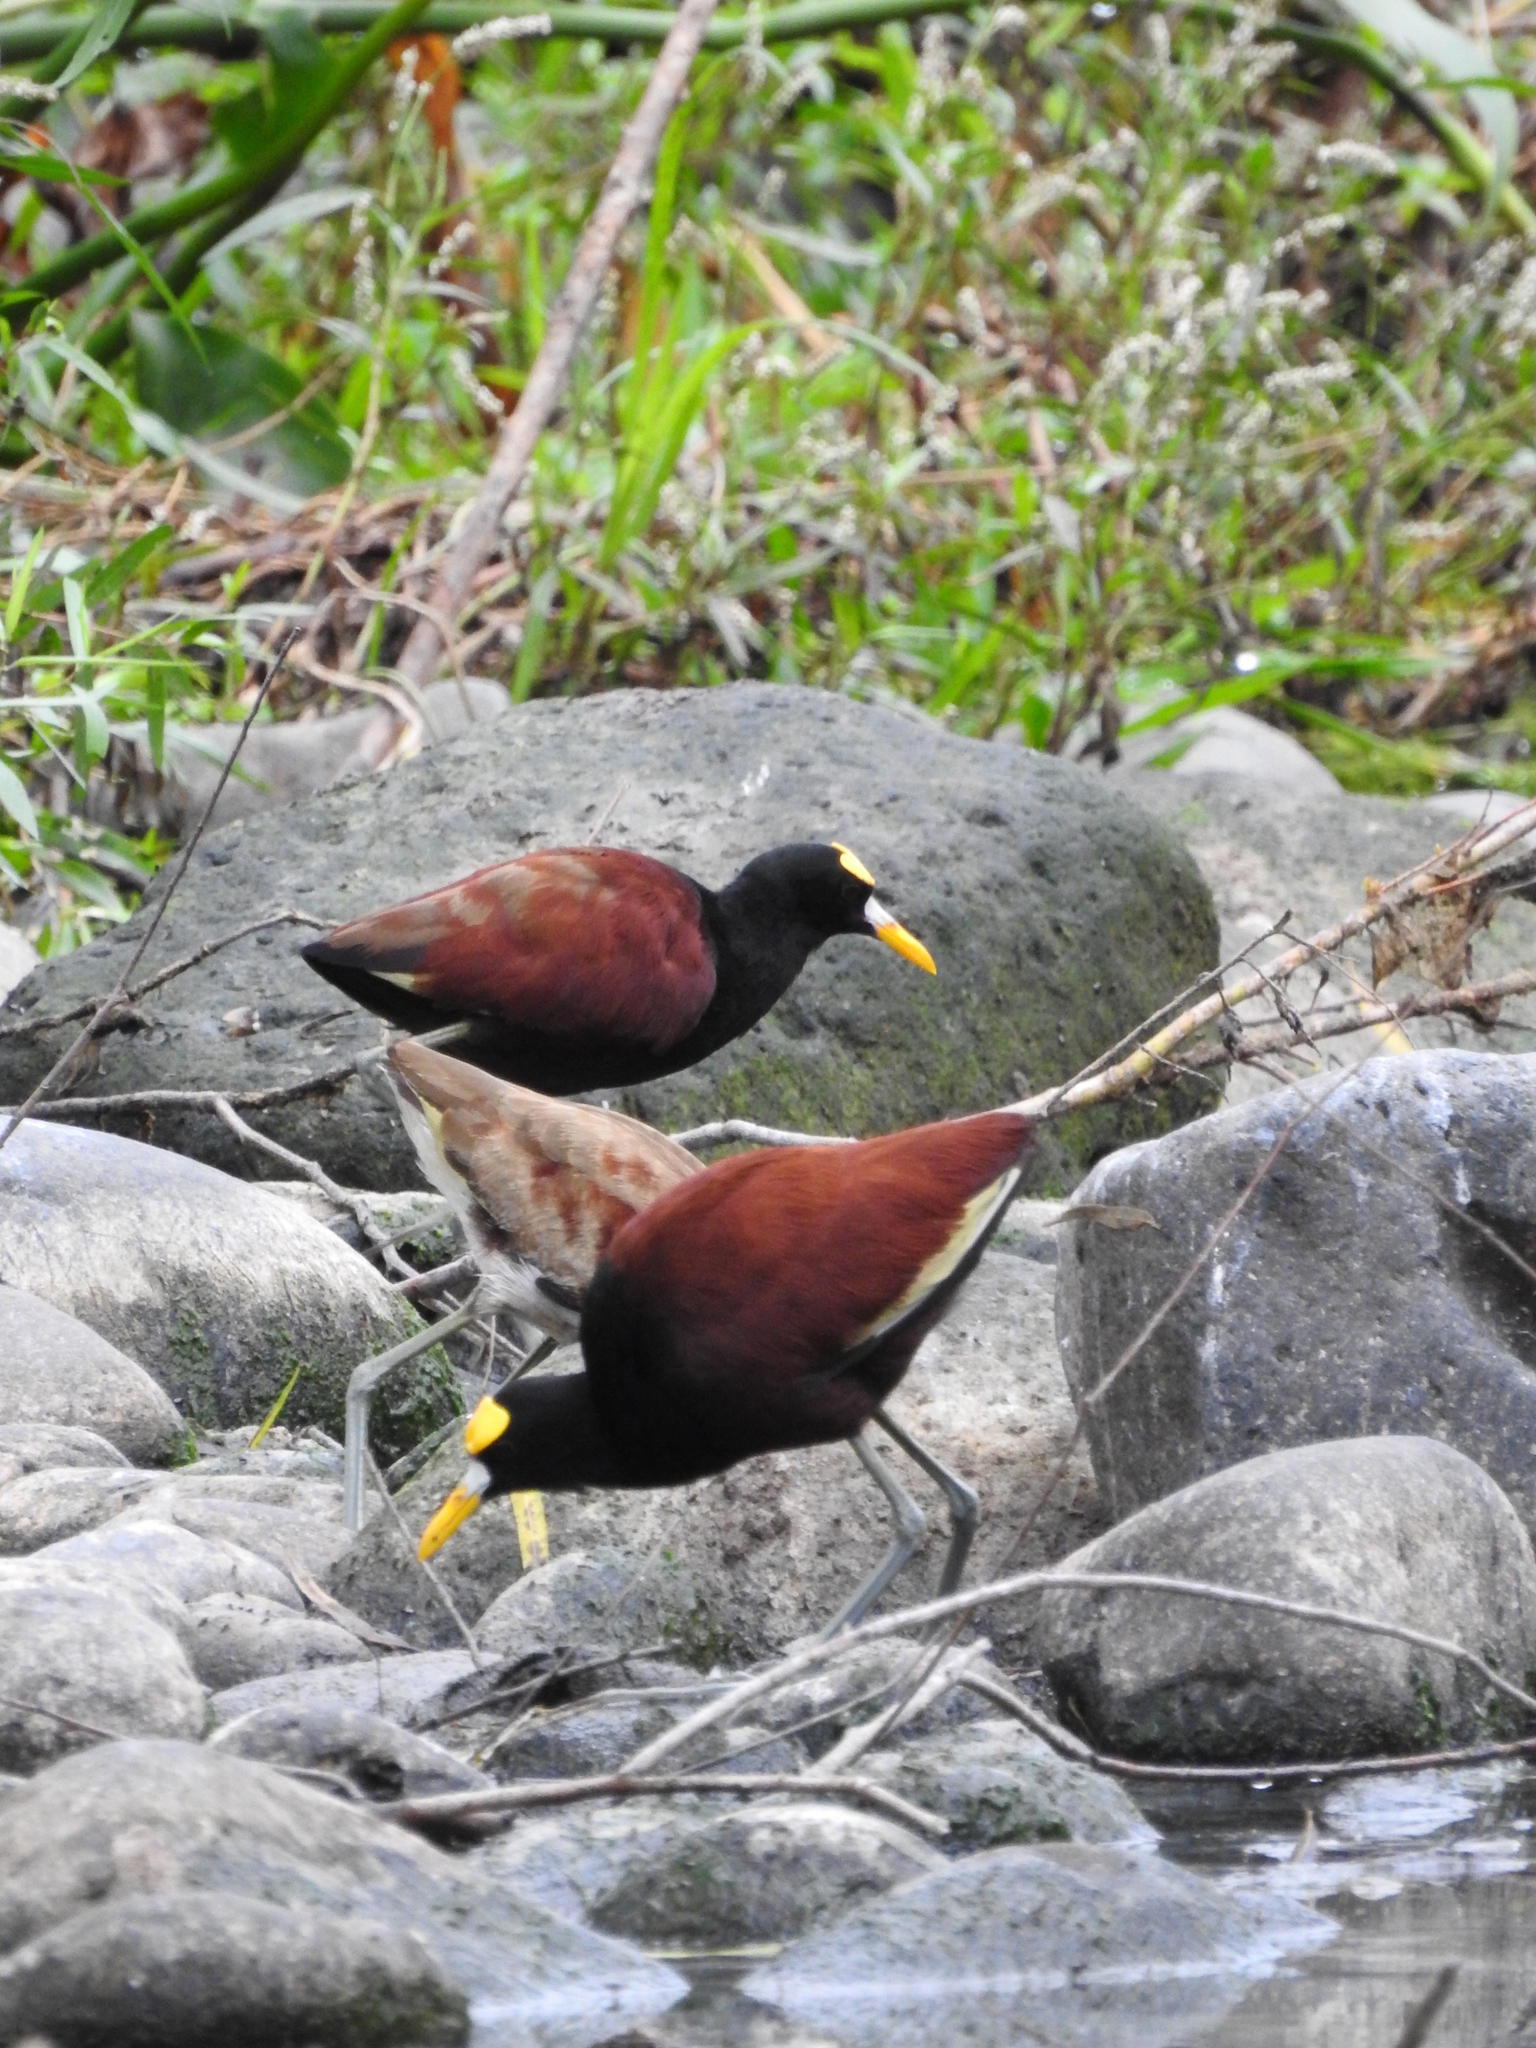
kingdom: Animalia
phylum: Chordata
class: Aves
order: Charadriiformes
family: Jacanidae
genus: Jacana
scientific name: Jacana spinosa
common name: Northern jacana
